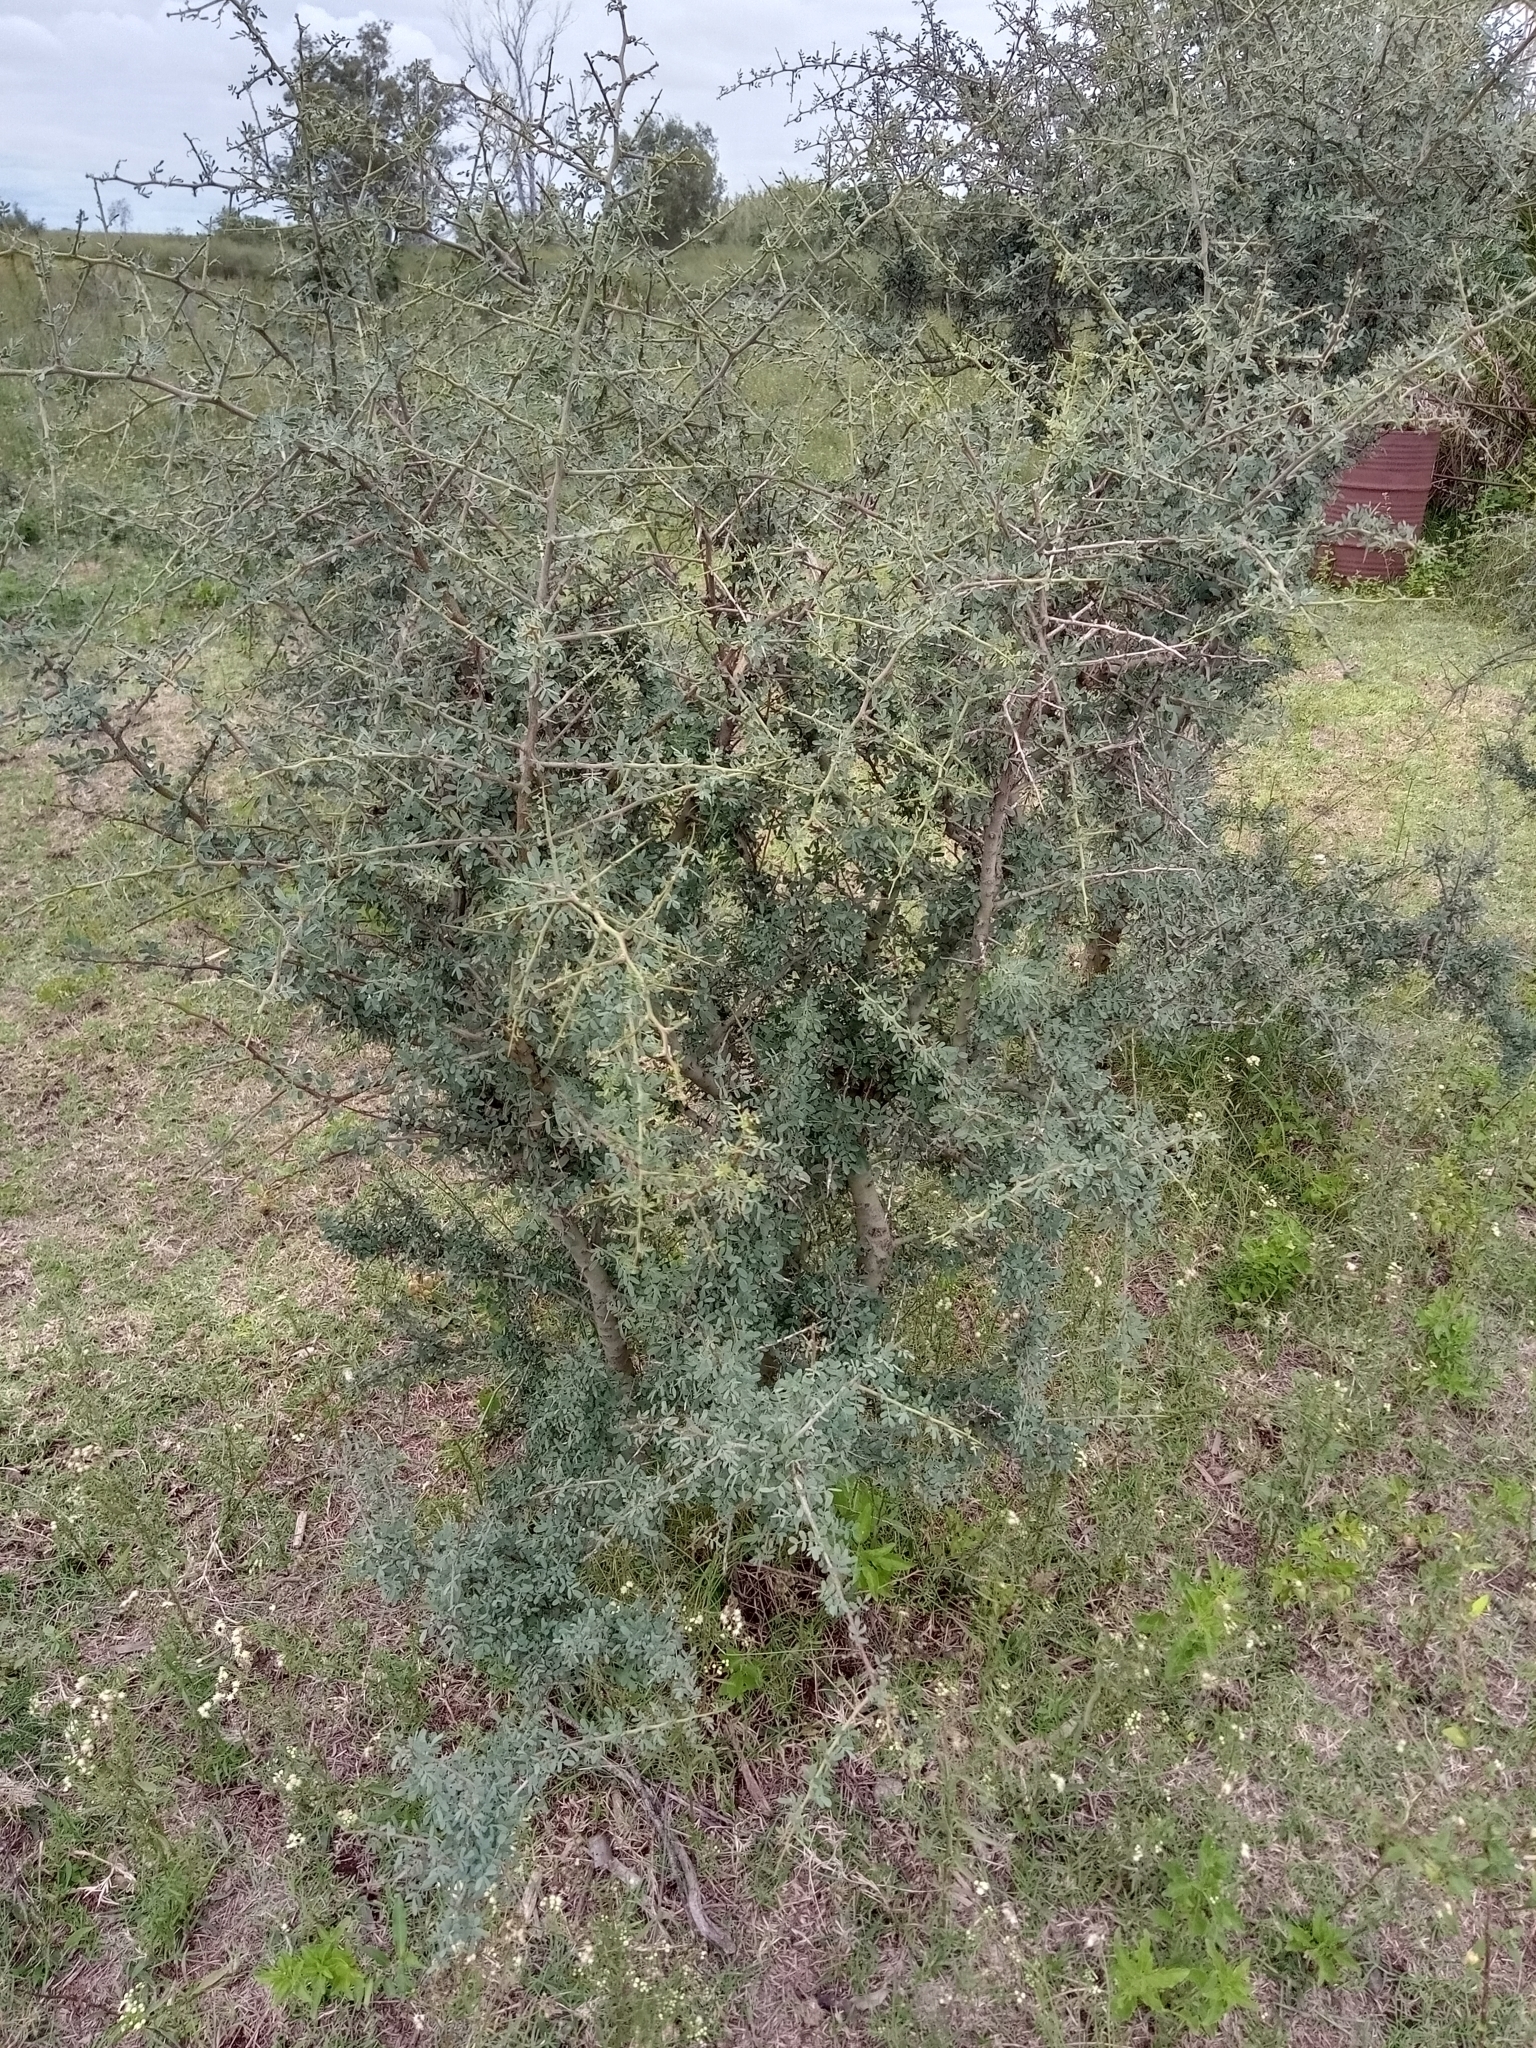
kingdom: Plantae
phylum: Tracheophyta
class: Magnoliopsida
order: Fabales
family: Fabaceae
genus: Geoffroea
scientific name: Geoffroea decorticans
